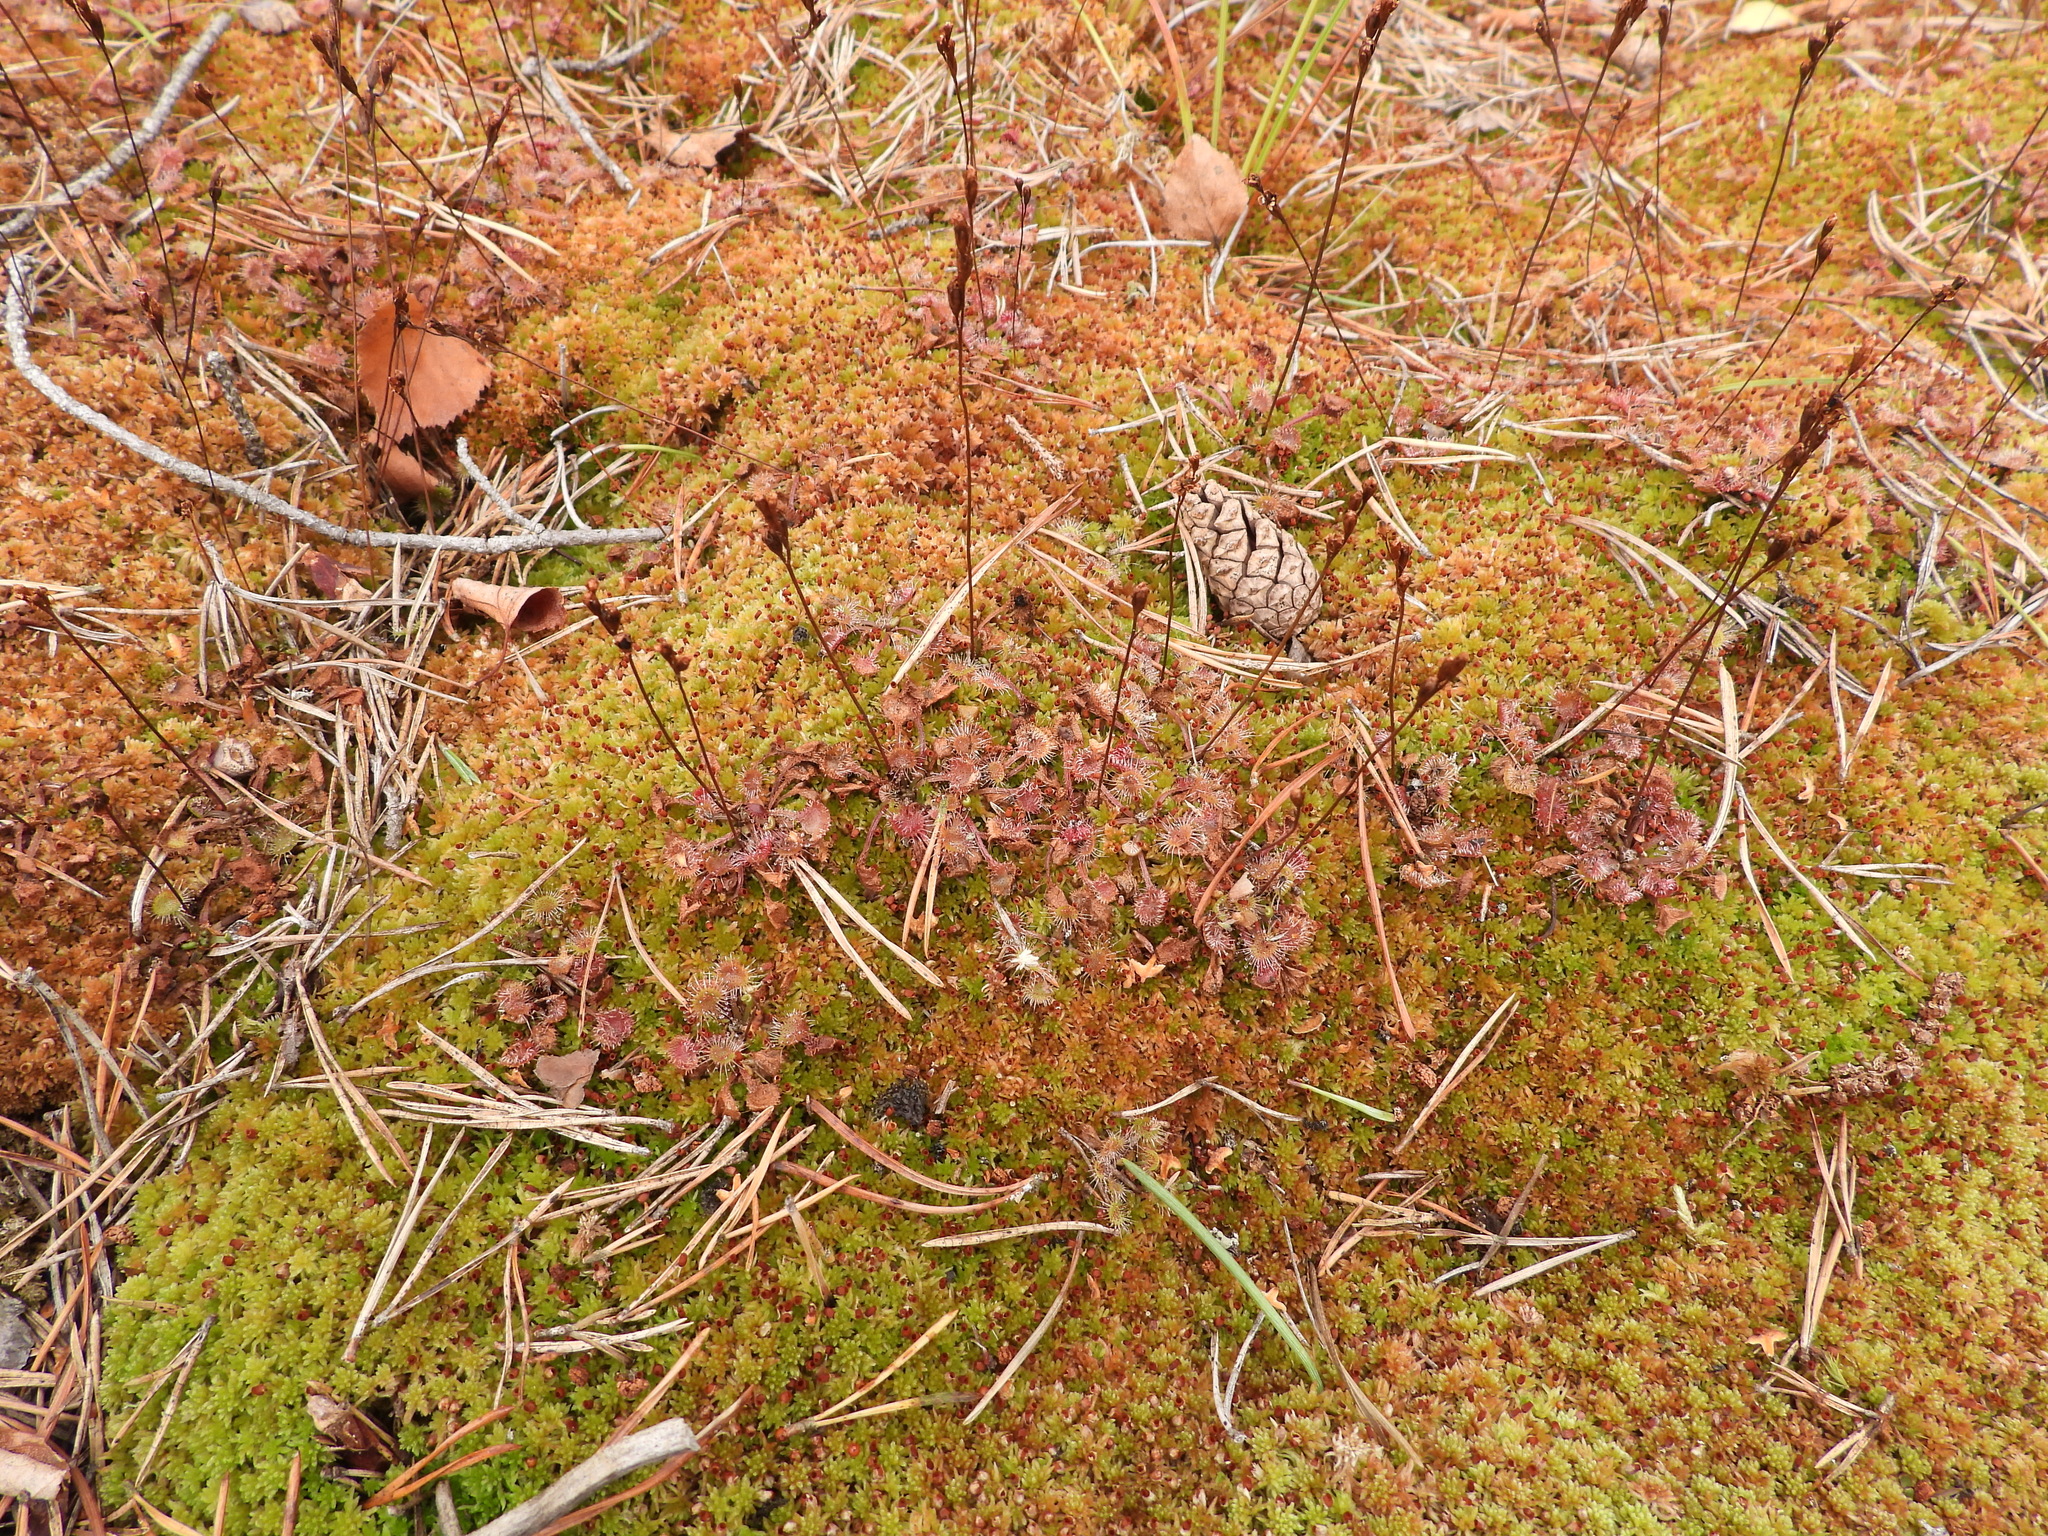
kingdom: Plantae
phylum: Tracheophyta
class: Magnoliopsida
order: Caryophyllales
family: Droseraceae
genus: Drosera
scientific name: Drosera rotundifolia
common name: Round-leaved sundew
